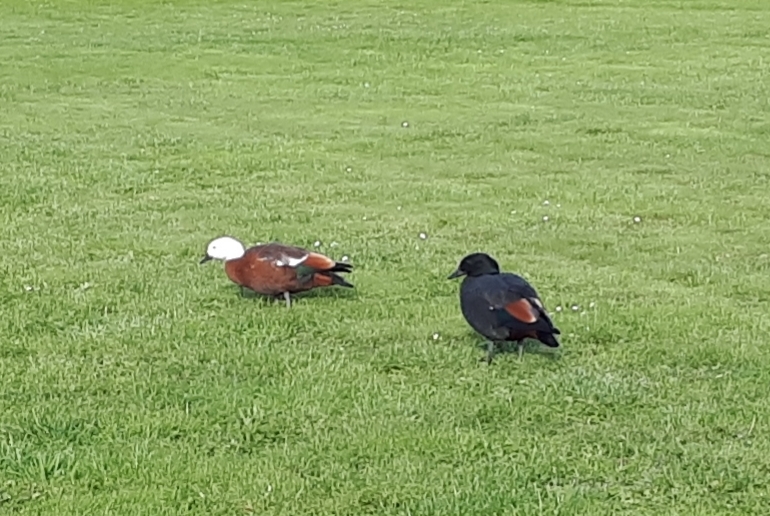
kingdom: Animalia
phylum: Chordata
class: Aves
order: Anseriformes
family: Anatidae
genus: Tadorna
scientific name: Tadorna variegata
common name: Paradise shelduck
